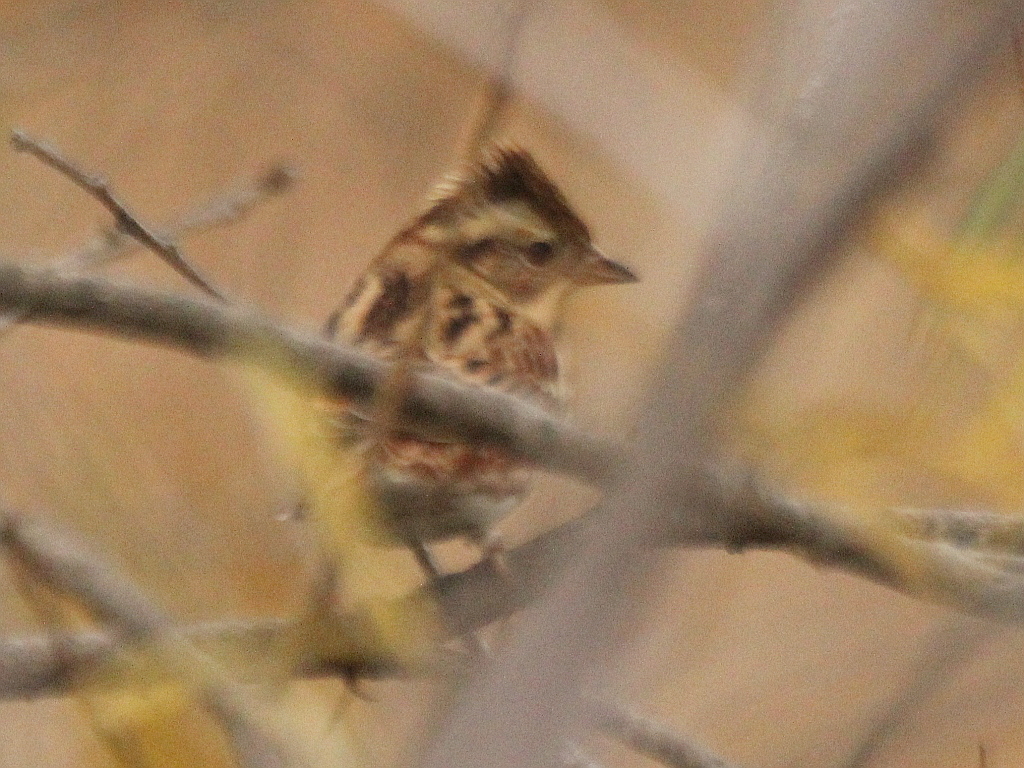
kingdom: Animalia
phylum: Chordata
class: Aves
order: Passeriformes
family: Emberizidae
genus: Emberiza
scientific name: Emberiza rustica
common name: Rustic bunting
